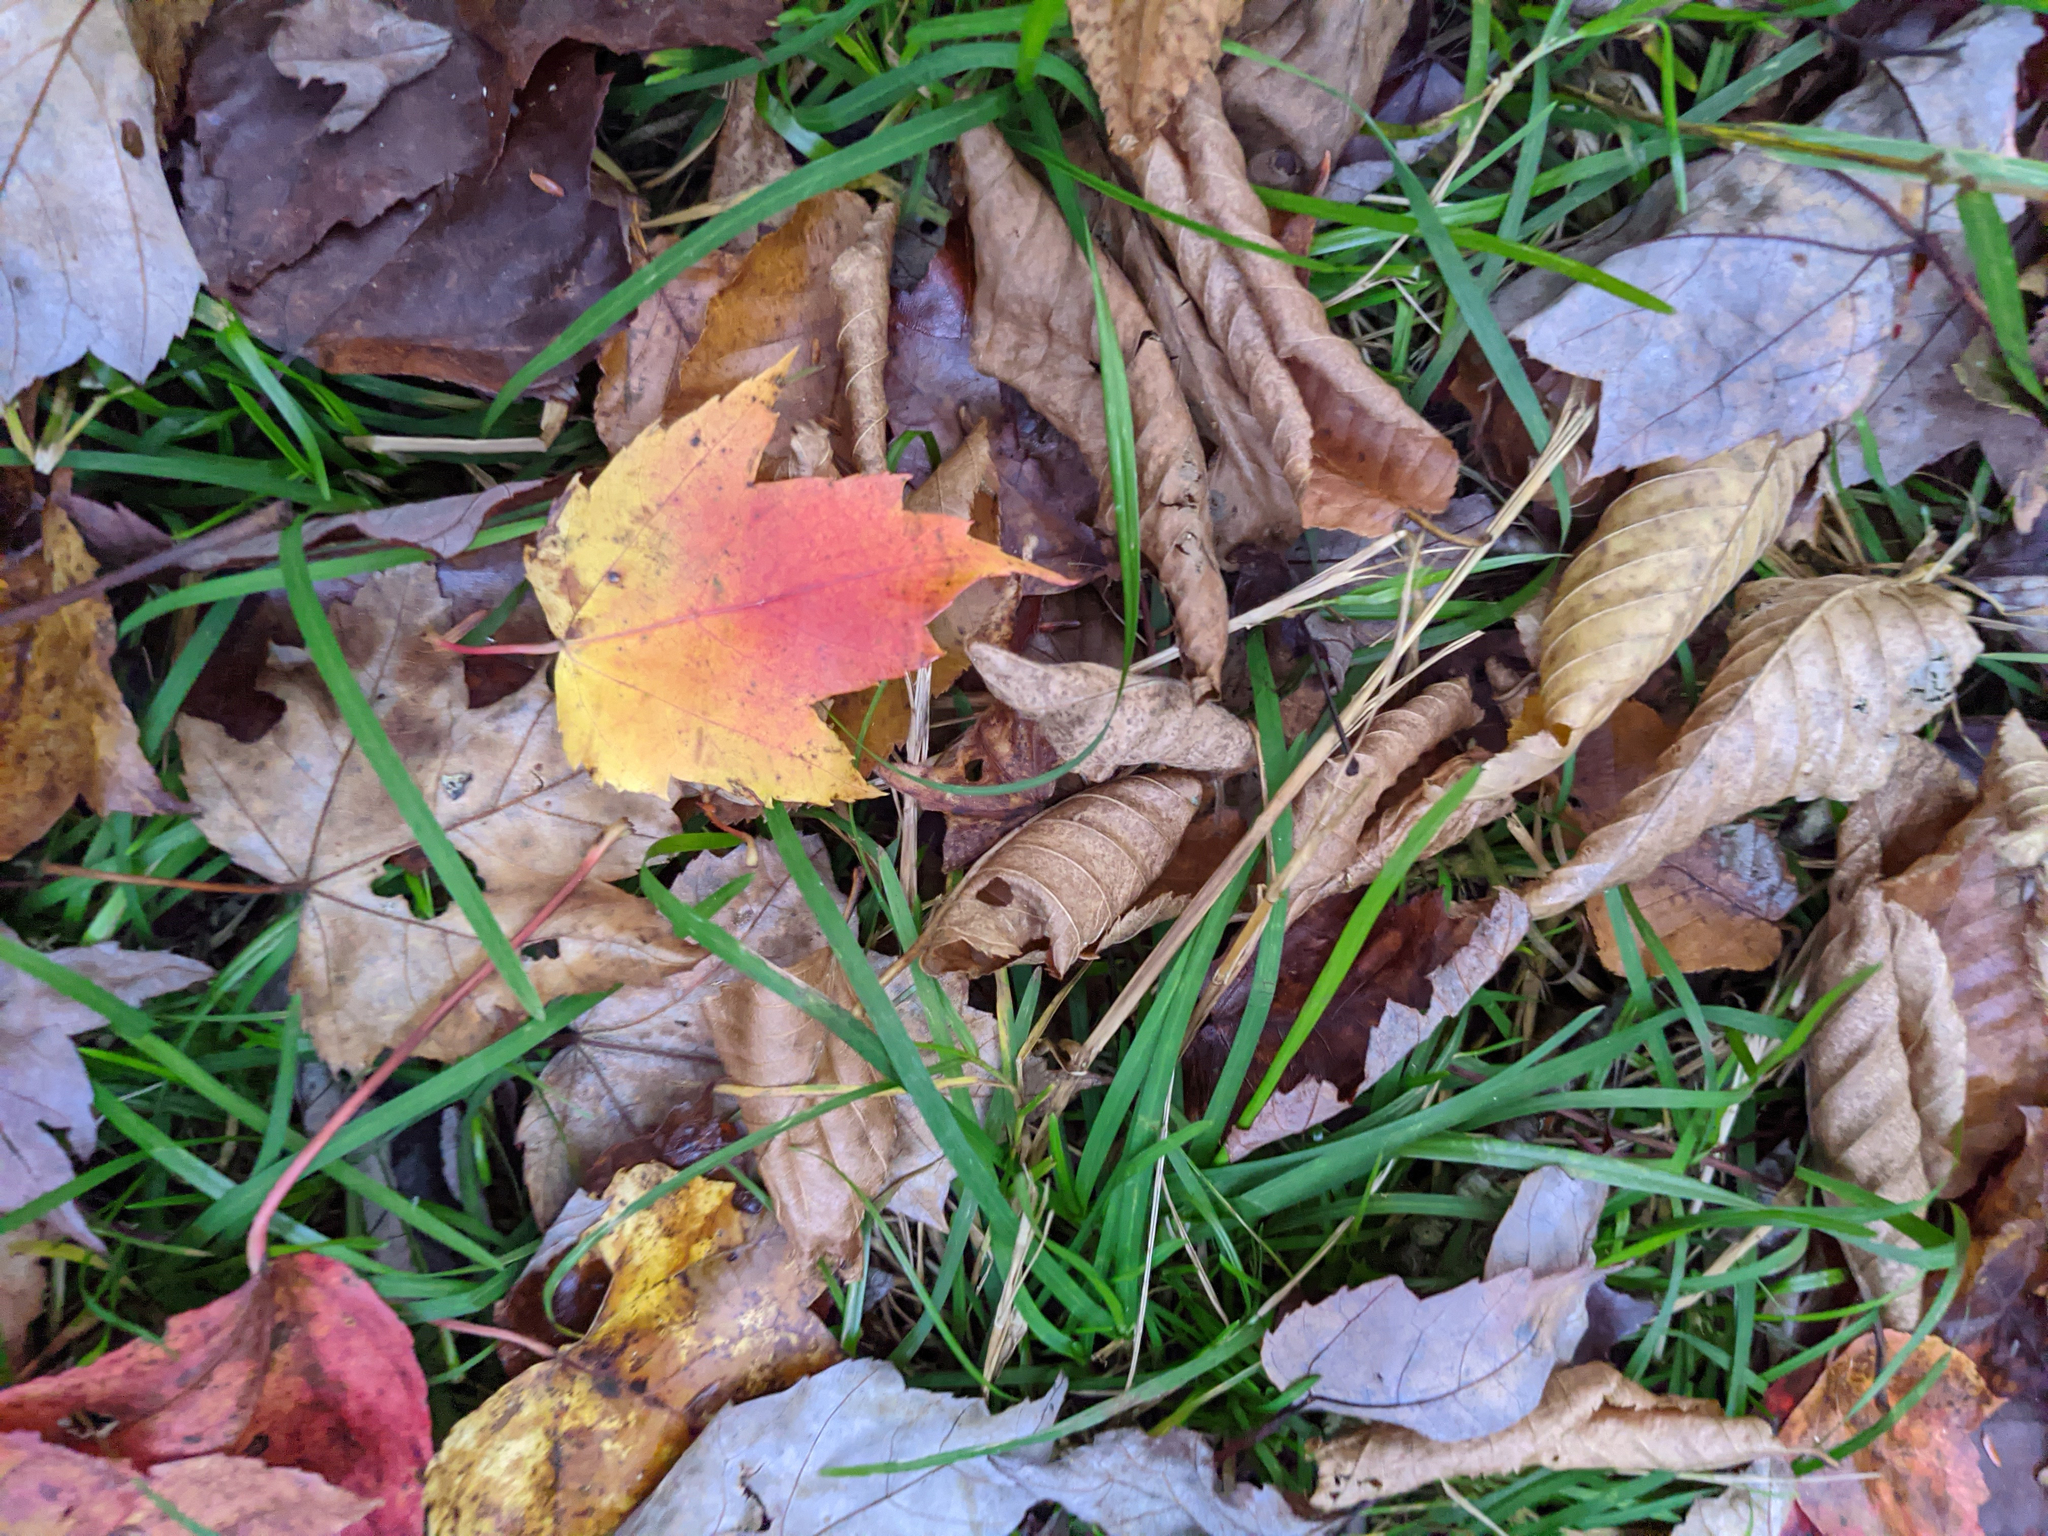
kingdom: Plantae
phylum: Tracheophyta
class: Magnoliopsida
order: Sapindales
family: Sapindaceae
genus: Acer
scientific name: Acer rubrum
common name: Red maple
